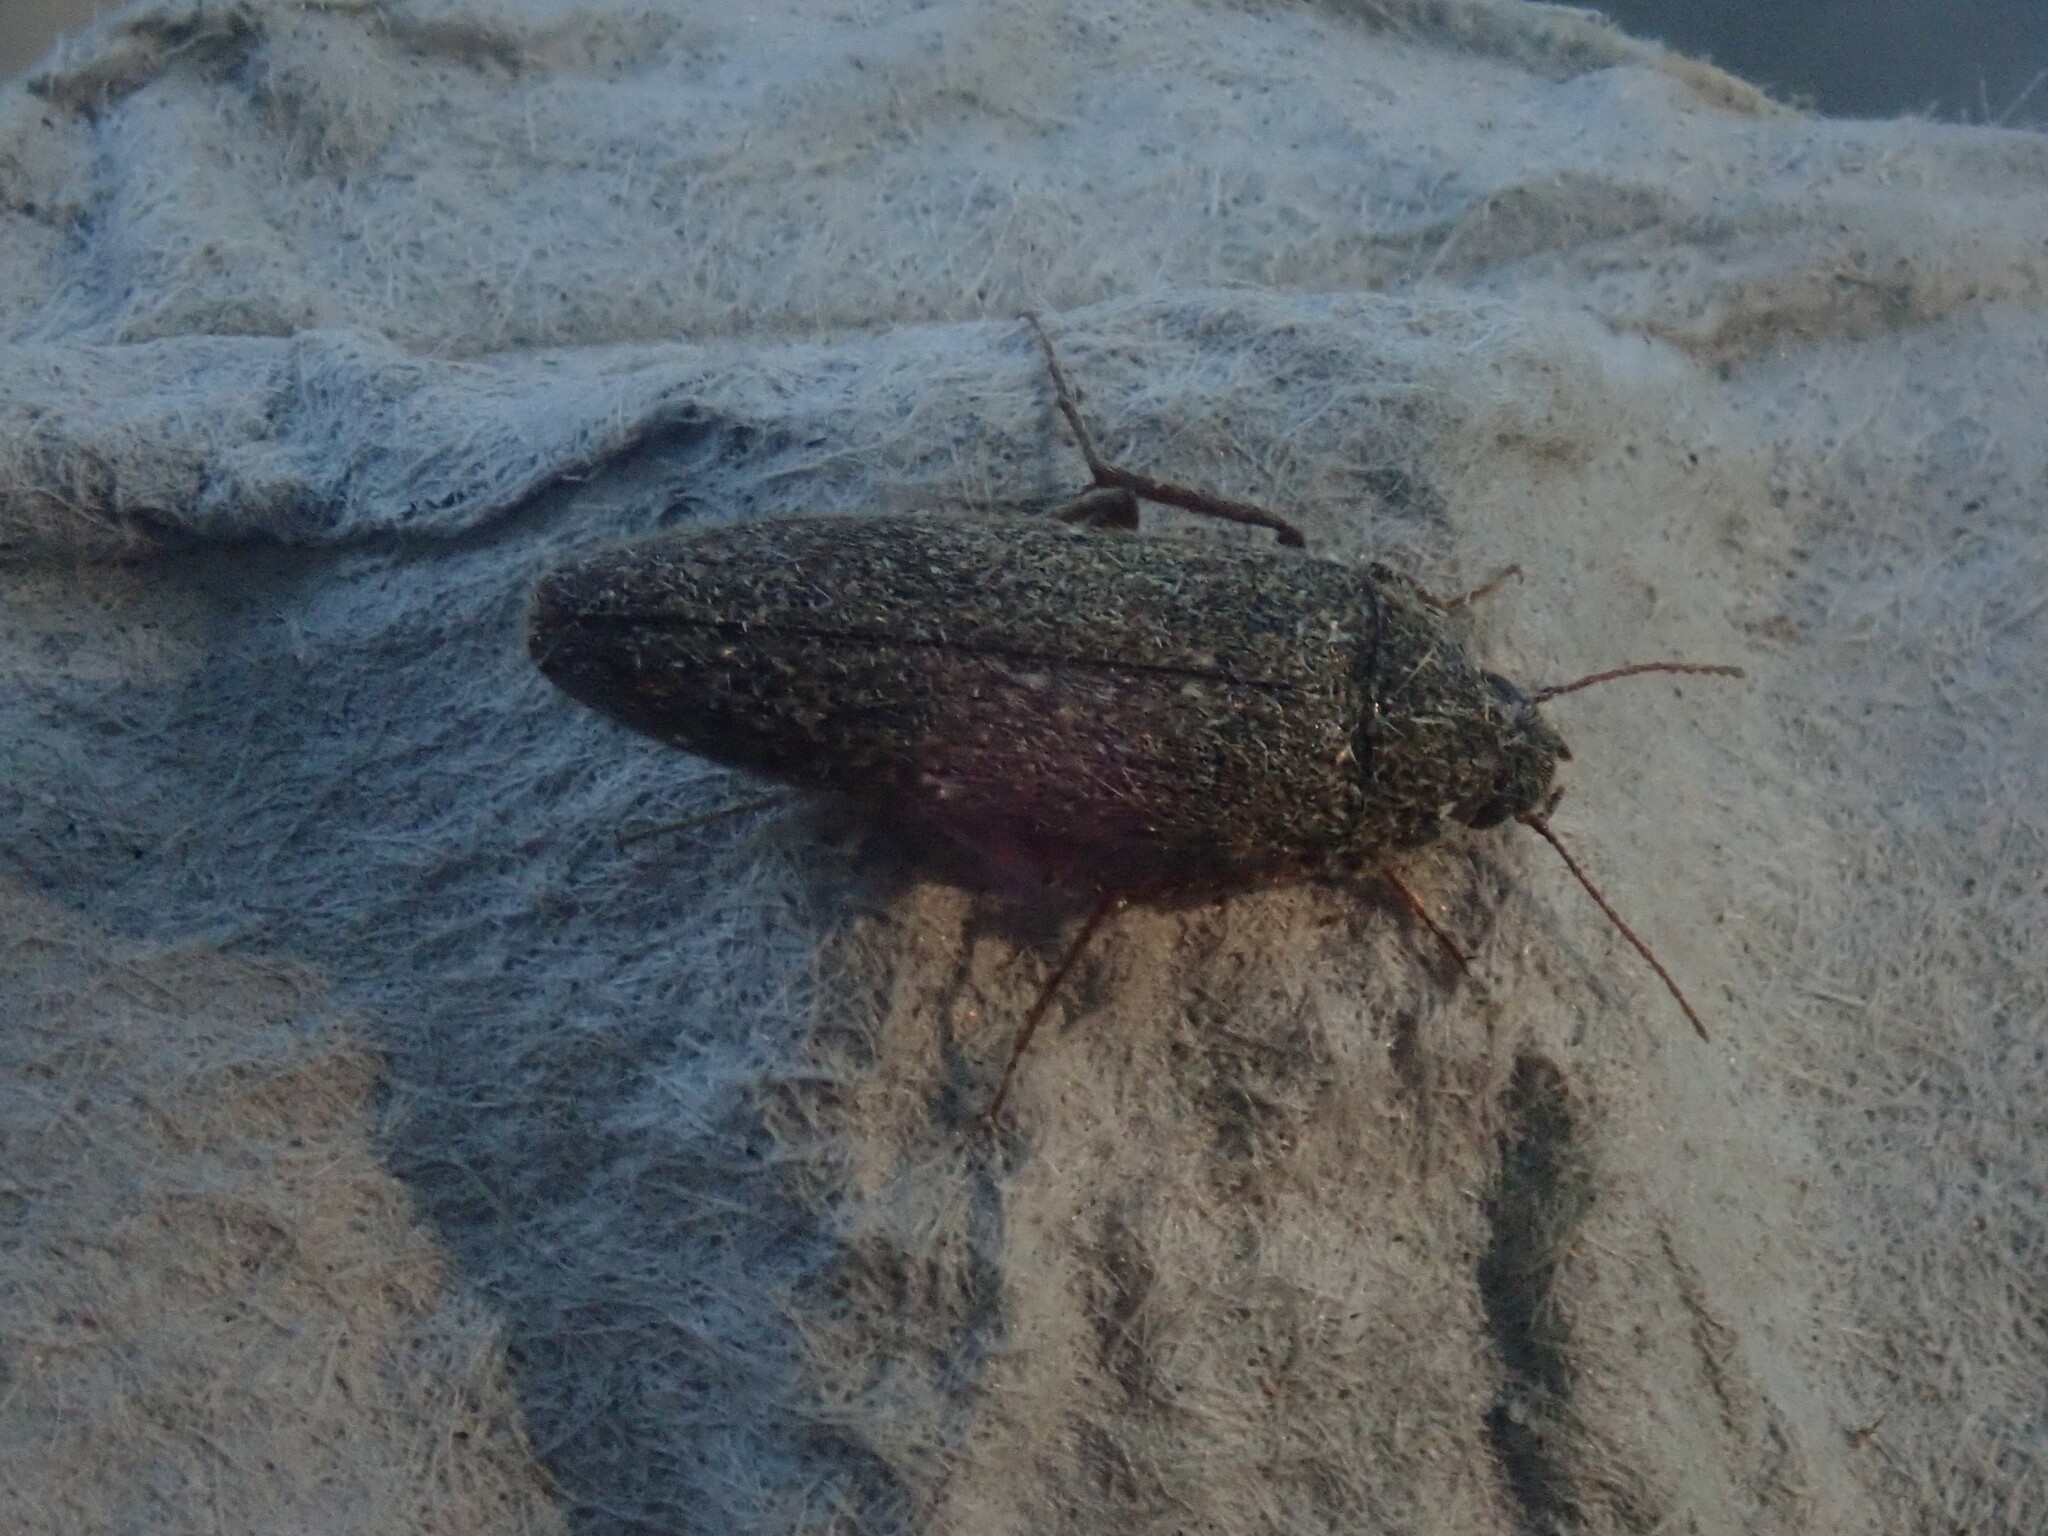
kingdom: Animalia
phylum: Arthropoda
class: Insecta
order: Coleoptera
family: Synchroidae
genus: Synchroa
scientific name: Synchroa punctata
